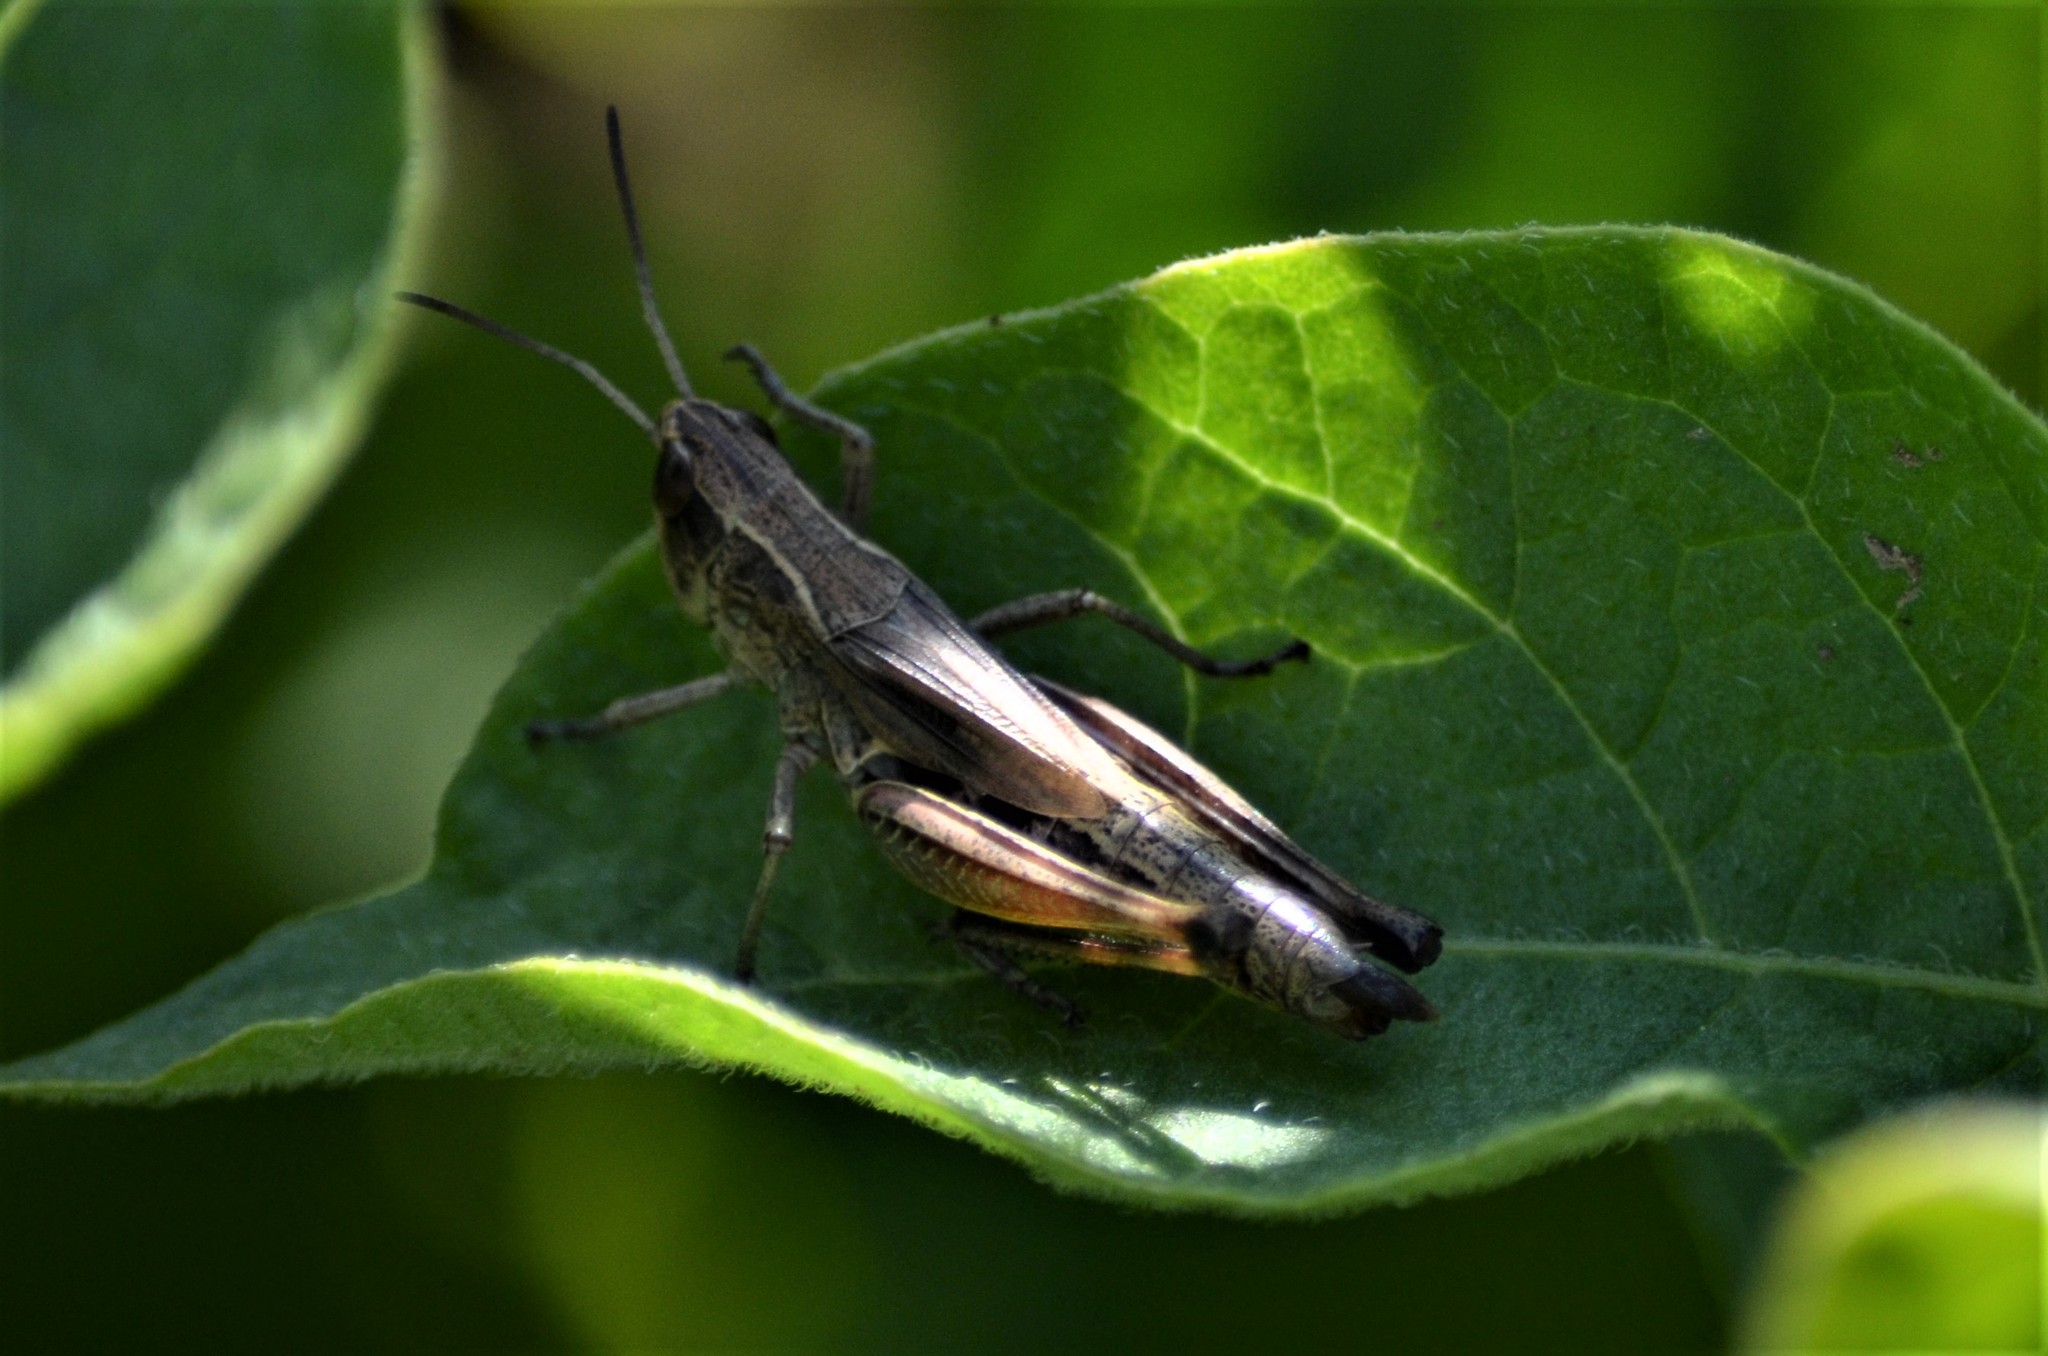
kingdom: Animalia
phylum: Arthropoda
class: Insecta
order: Orthoptera
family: Acrididae
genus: Pseudochorthippus
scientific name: Pseudochorthippus parallelus
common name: Meadow grasshopper
